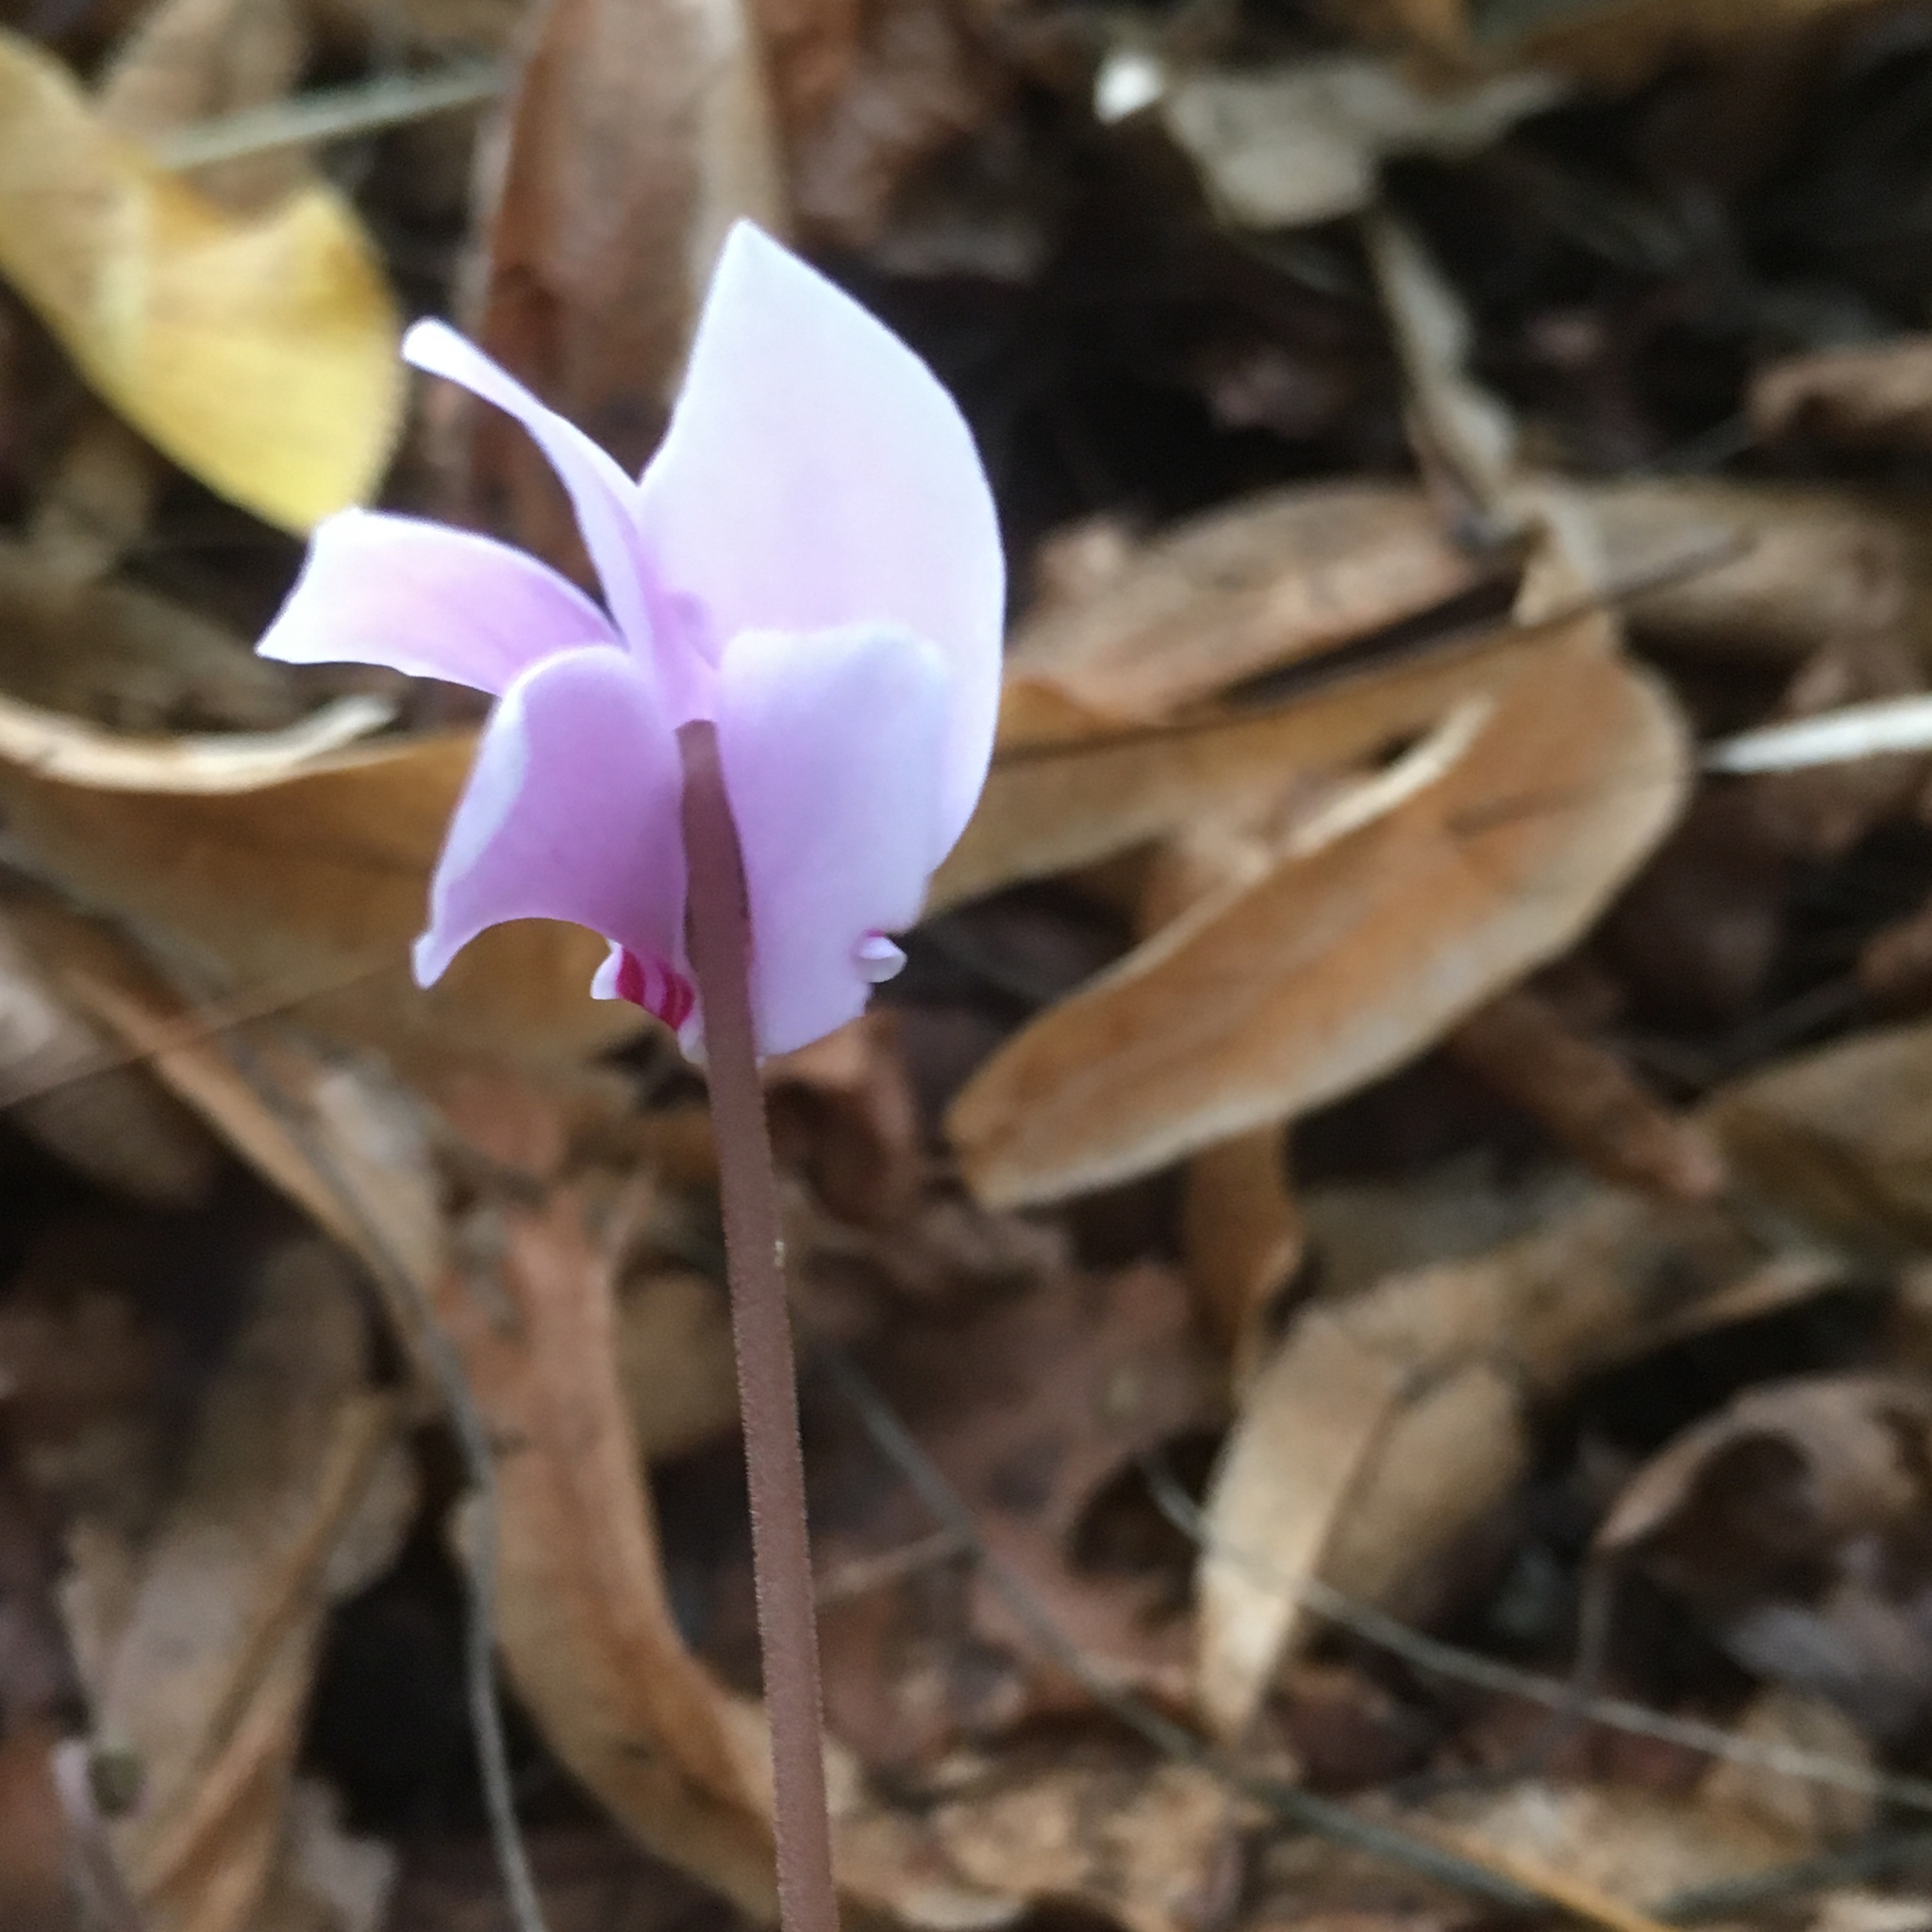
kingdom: Plantae
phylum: Tracheophyta
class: Magnoliopsida
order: Ericales
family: Primulaceae
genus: Cyclamen
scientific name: Cyclamen hederifolium
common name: Sowbread
